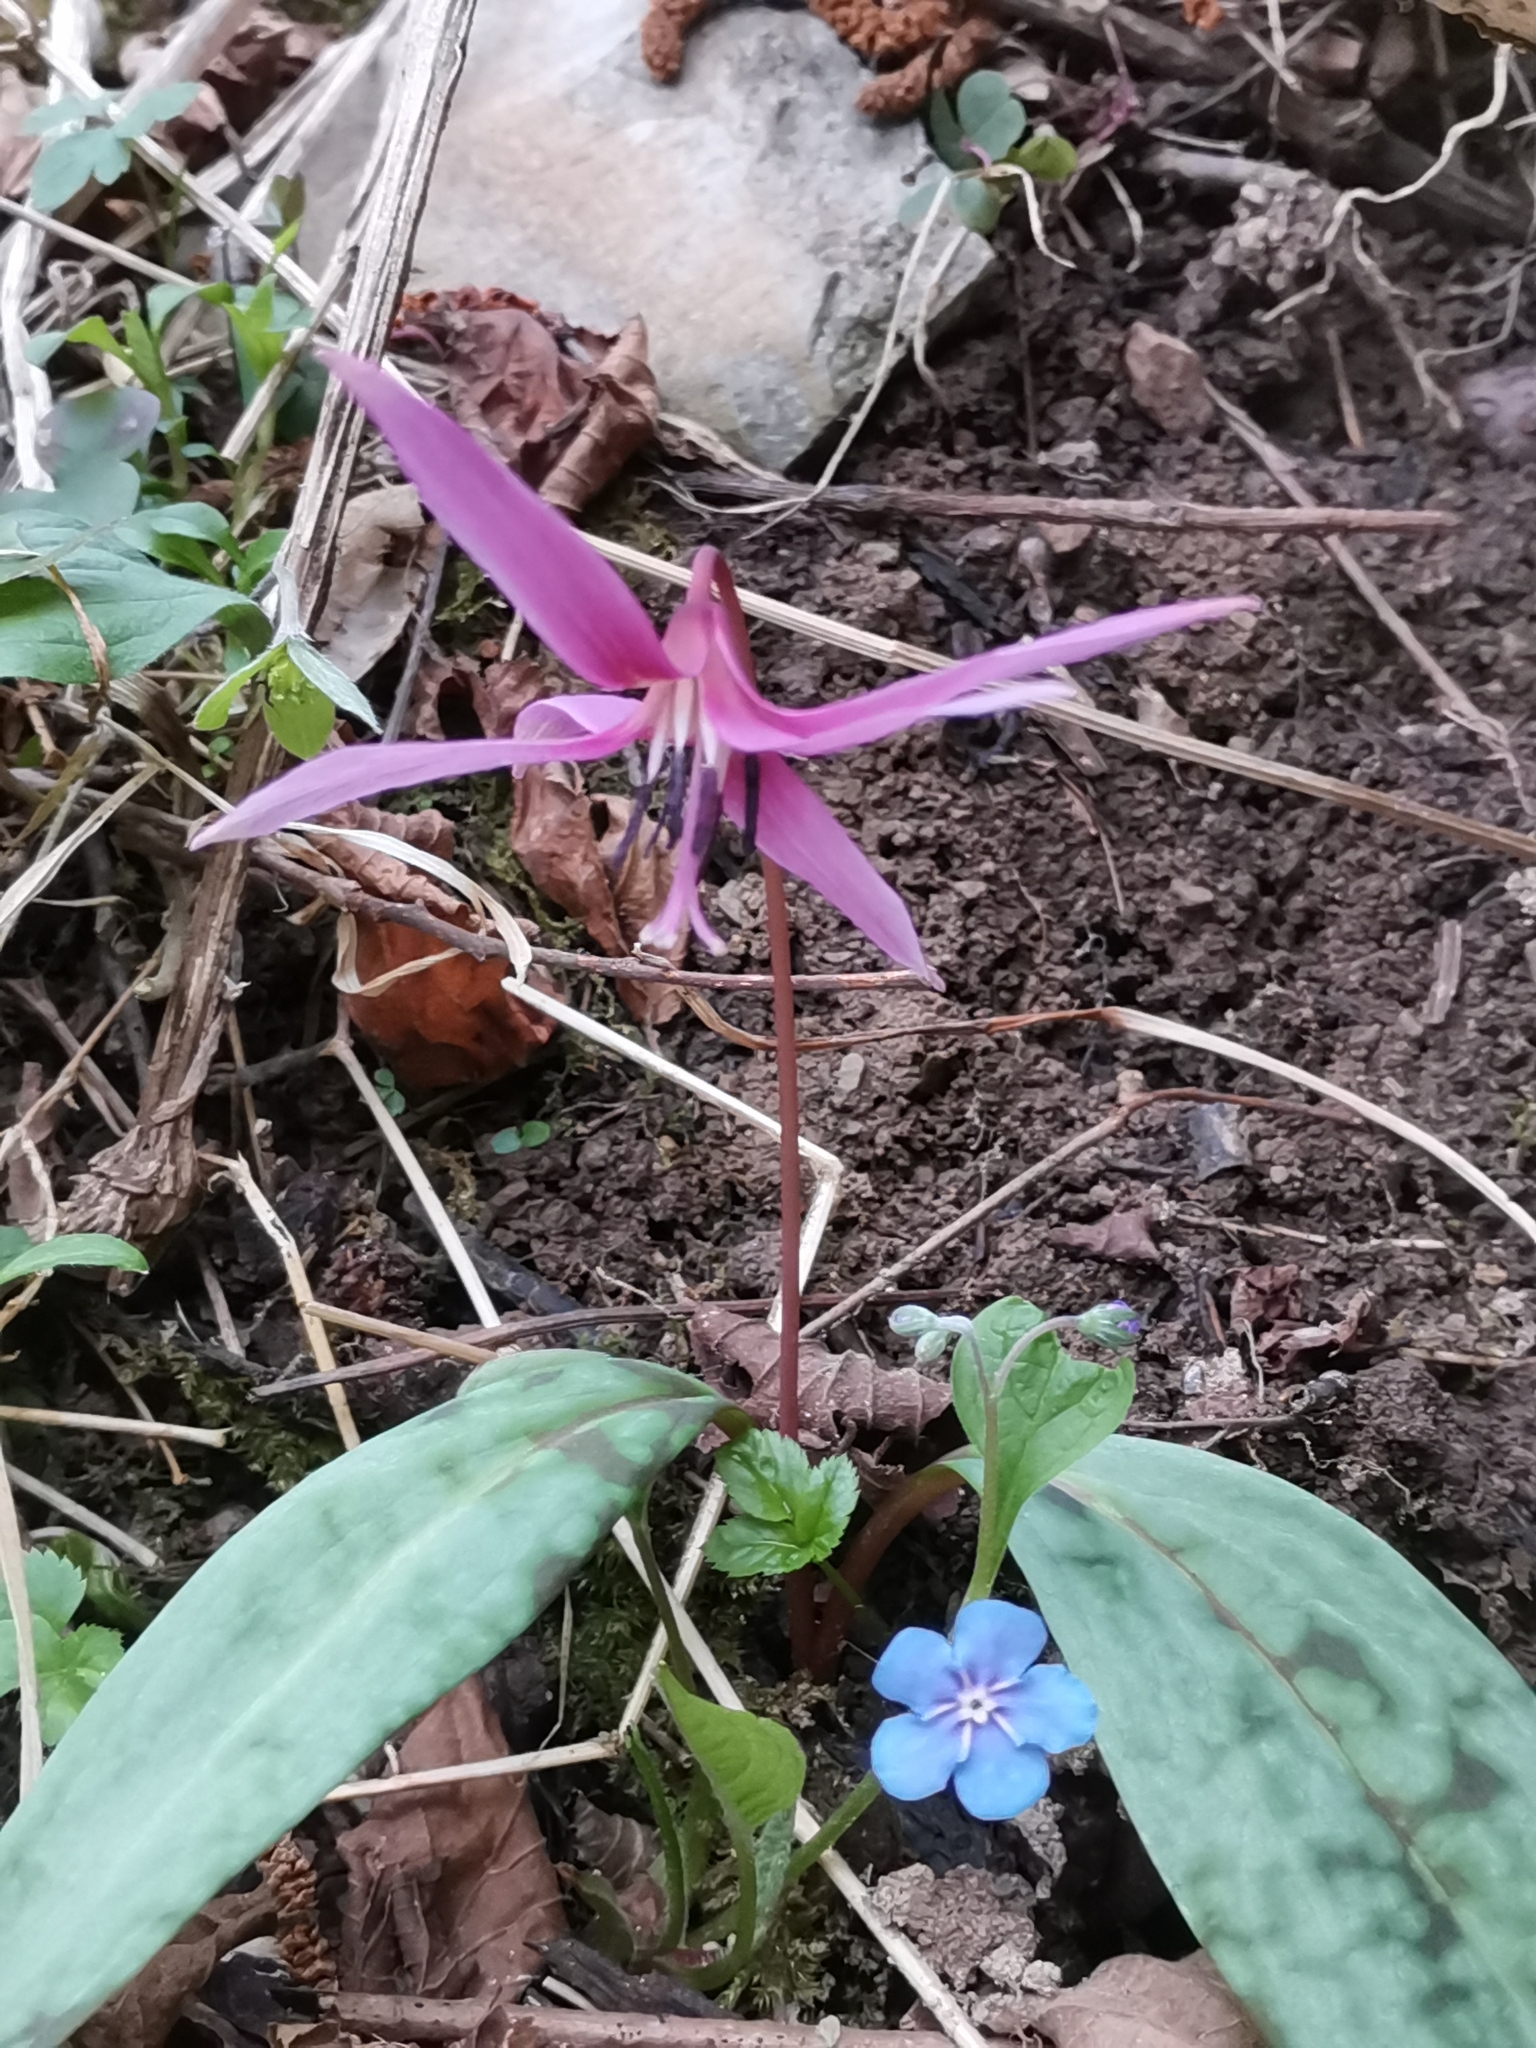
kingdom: Plantae
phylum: Tracheophyta
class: Liliopsida
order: Liliales
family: Liliaceae
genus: Erythronium
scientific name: Erythronium dens-canis
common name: Dog's-tooth-violet
